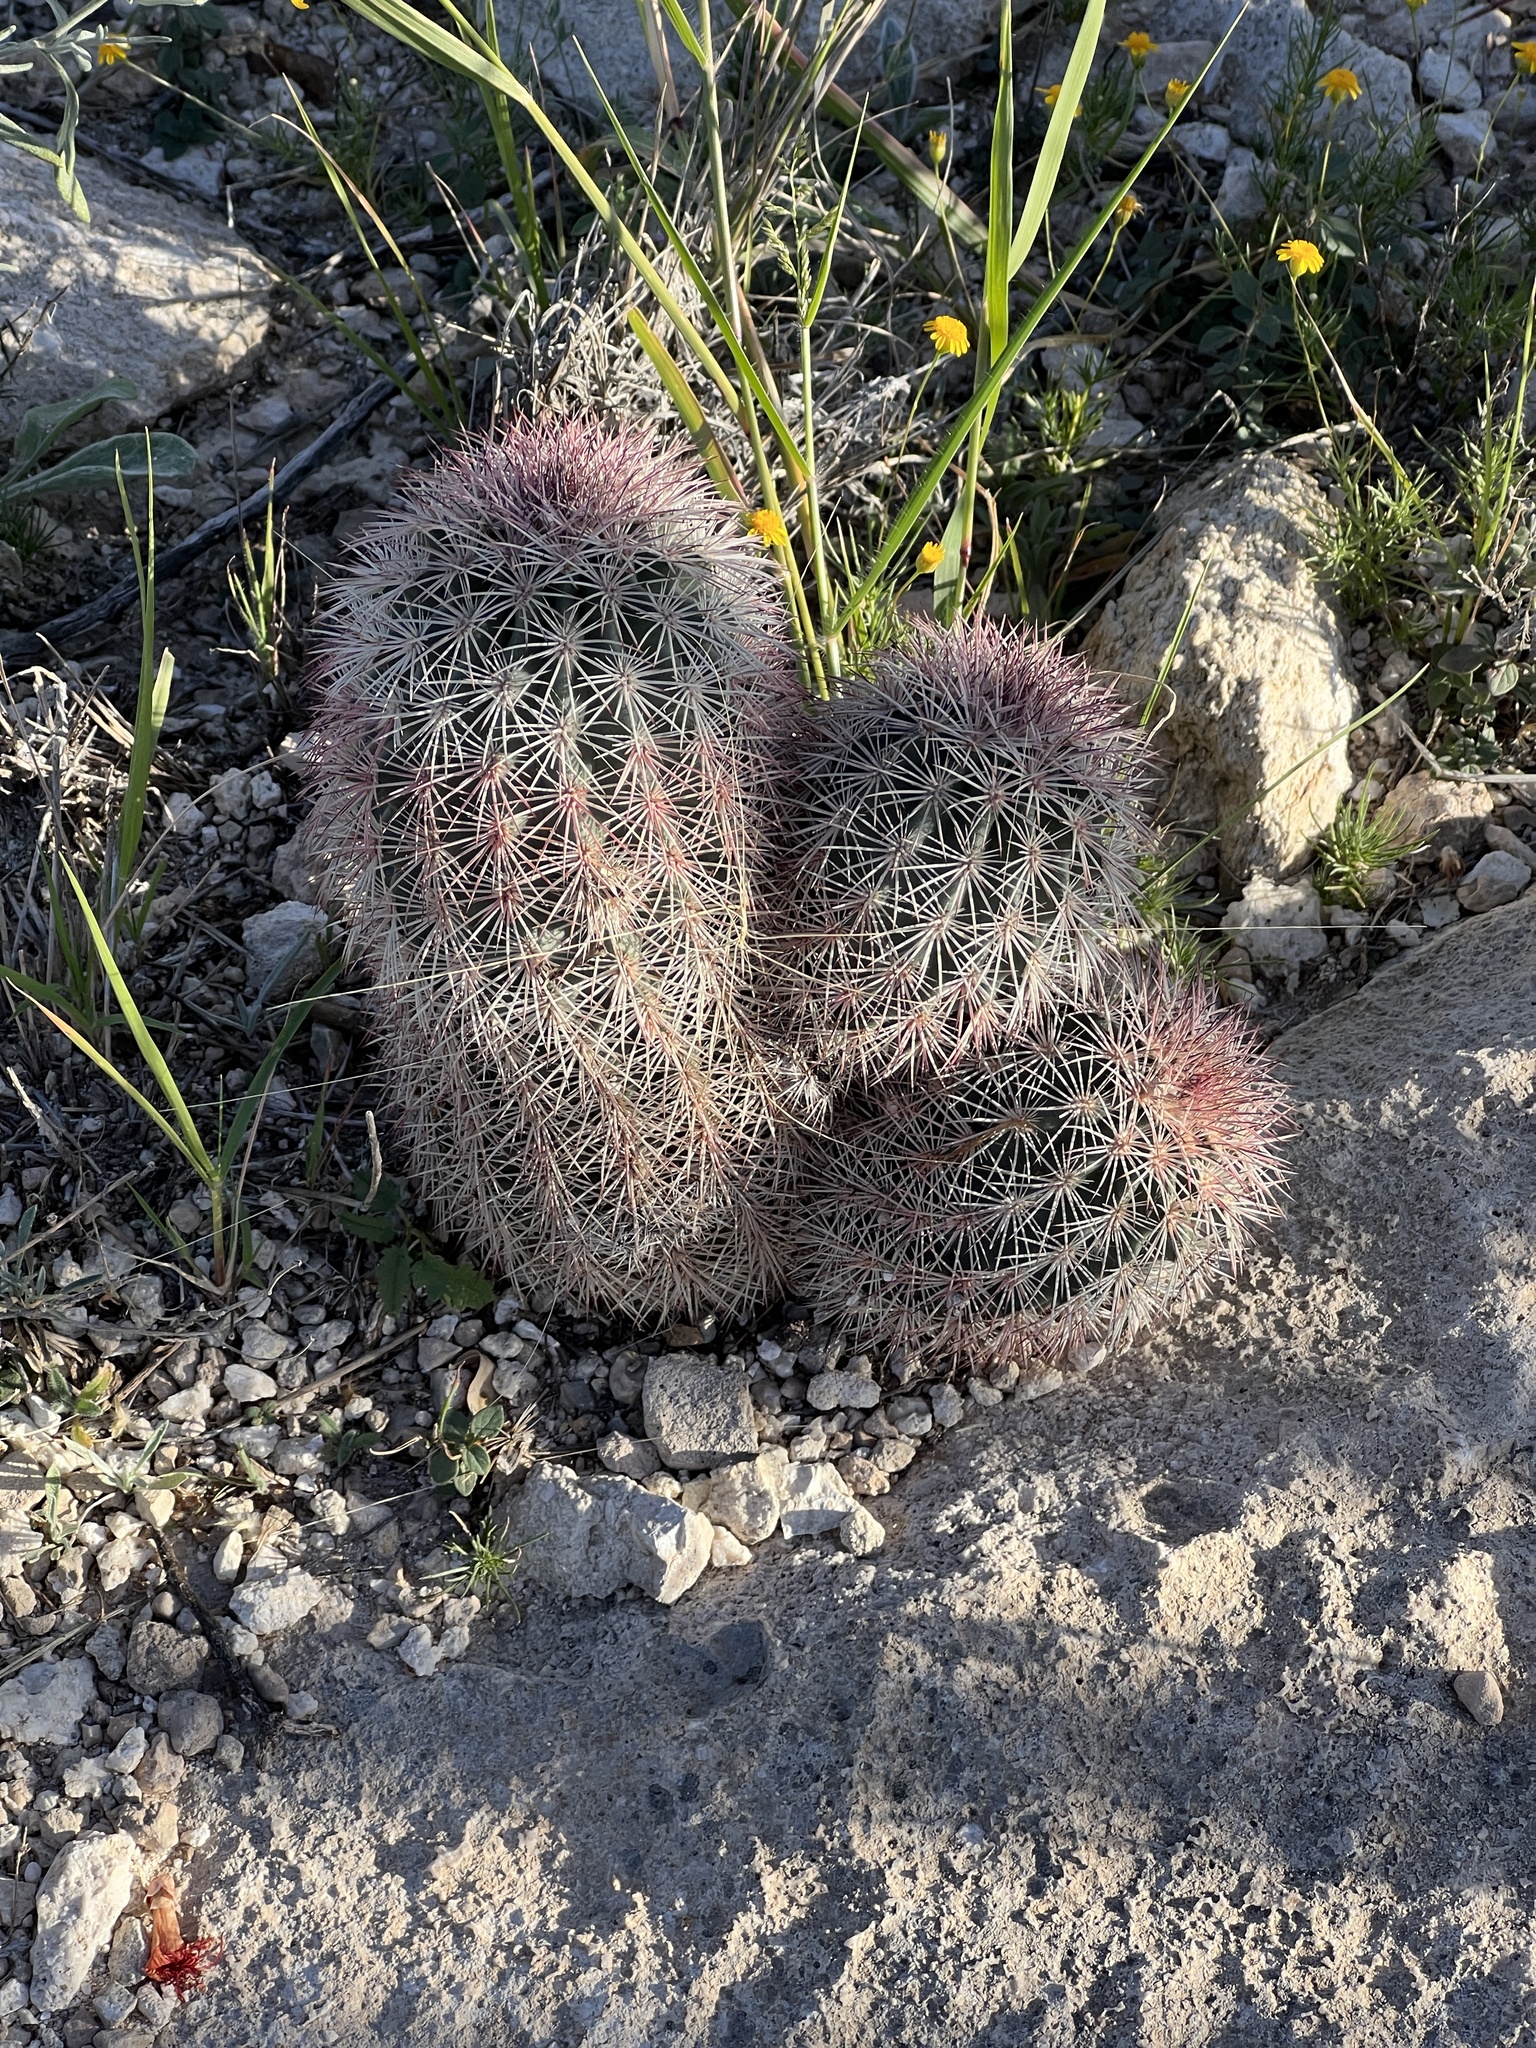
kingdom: Plantae
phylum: Tracheophyta
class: Magnoliopsida
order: Caryophyllales
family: Cactaceae
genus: Echinocereus
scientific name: Echinocereus dasyacanthus
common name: Spiny hedgehog cactus
